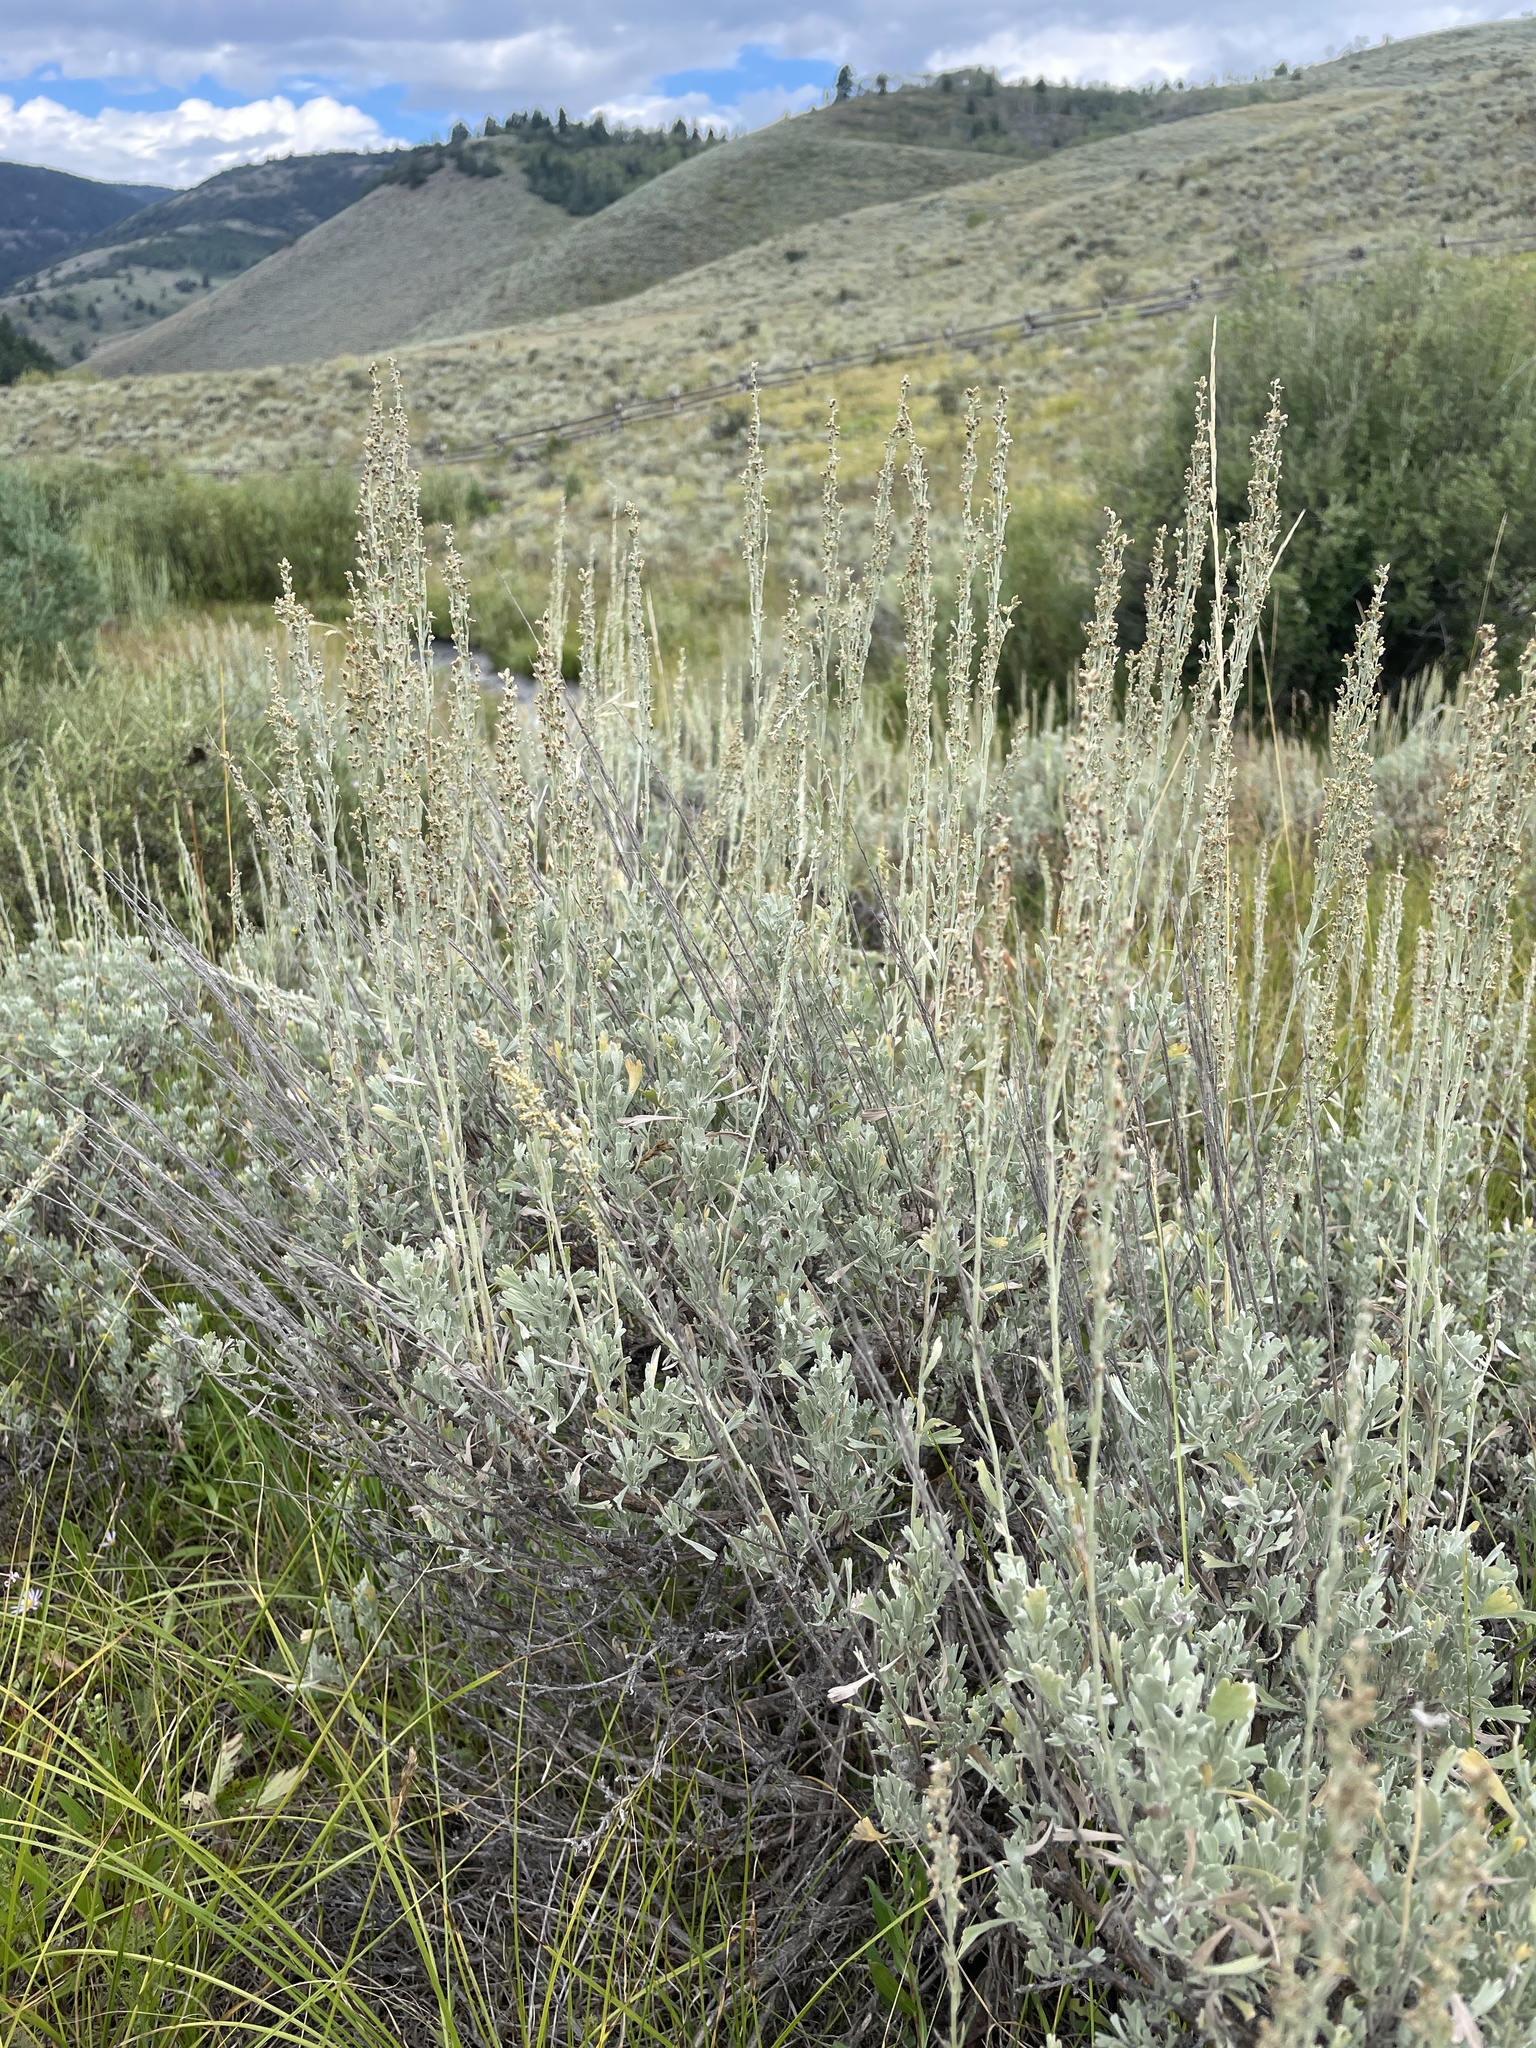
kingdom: Plantae
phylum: Tracheophyta
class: Magnoliopsida
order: Asterales
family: Asteraceae
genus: Artemisia
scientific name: Artemisia tridentata
